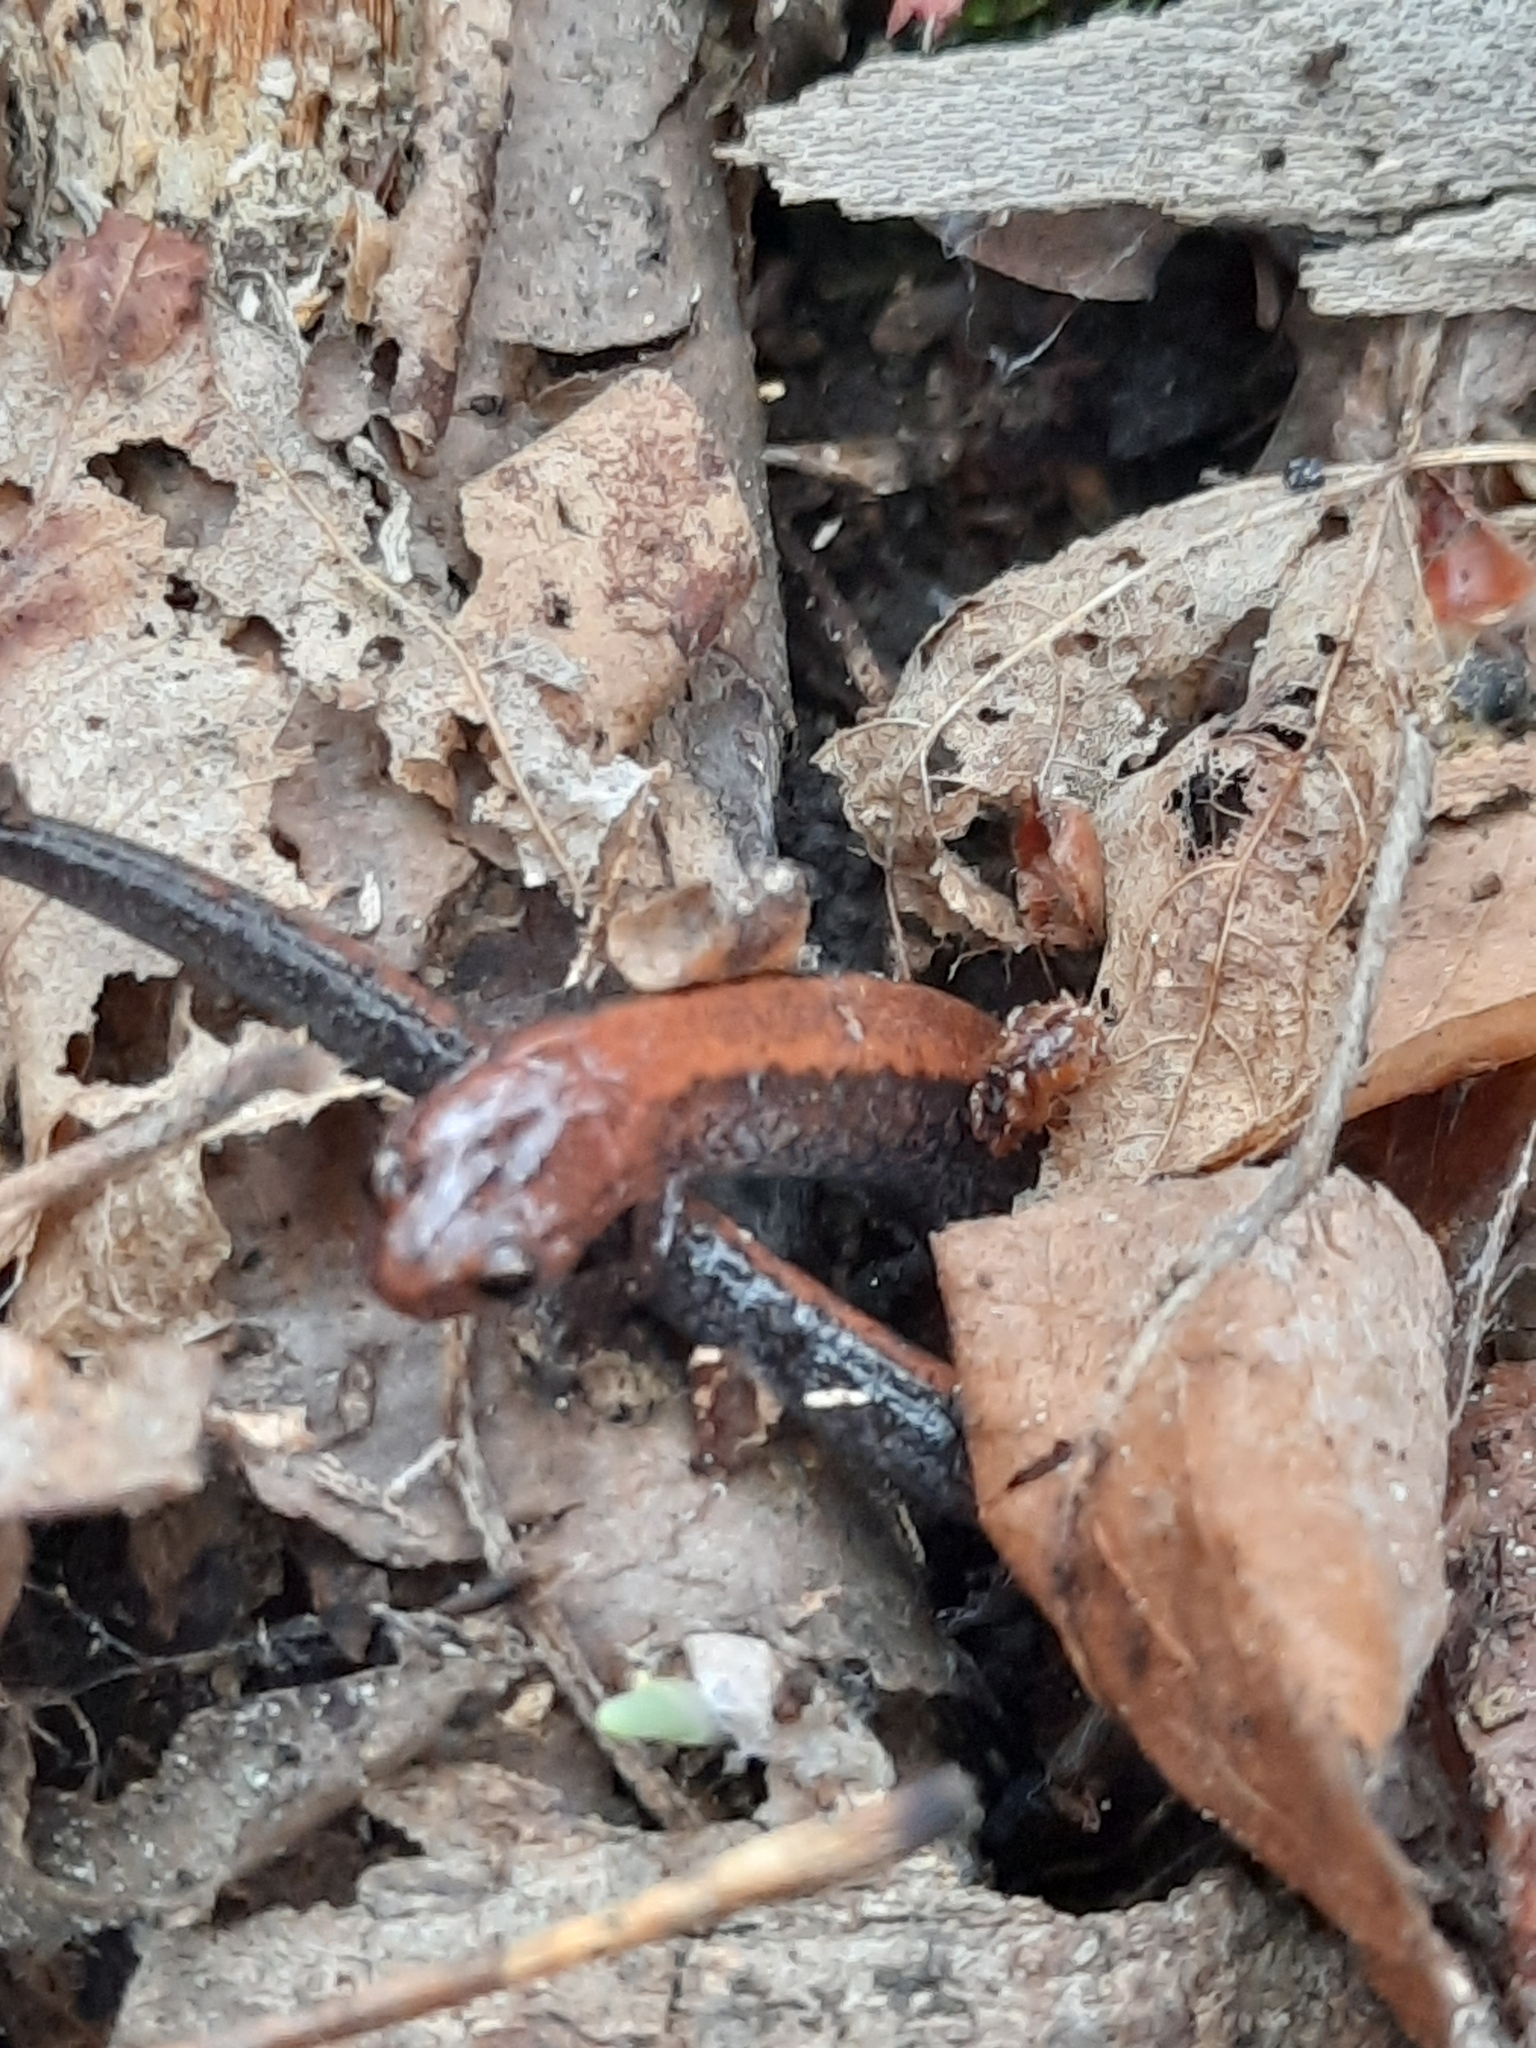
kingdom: Animalia
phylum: Chordata
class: Amphibia
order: Caudata
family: Plethodontidae
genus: Plethodon
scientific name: Plethodon cinereus
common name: Redback salamander
